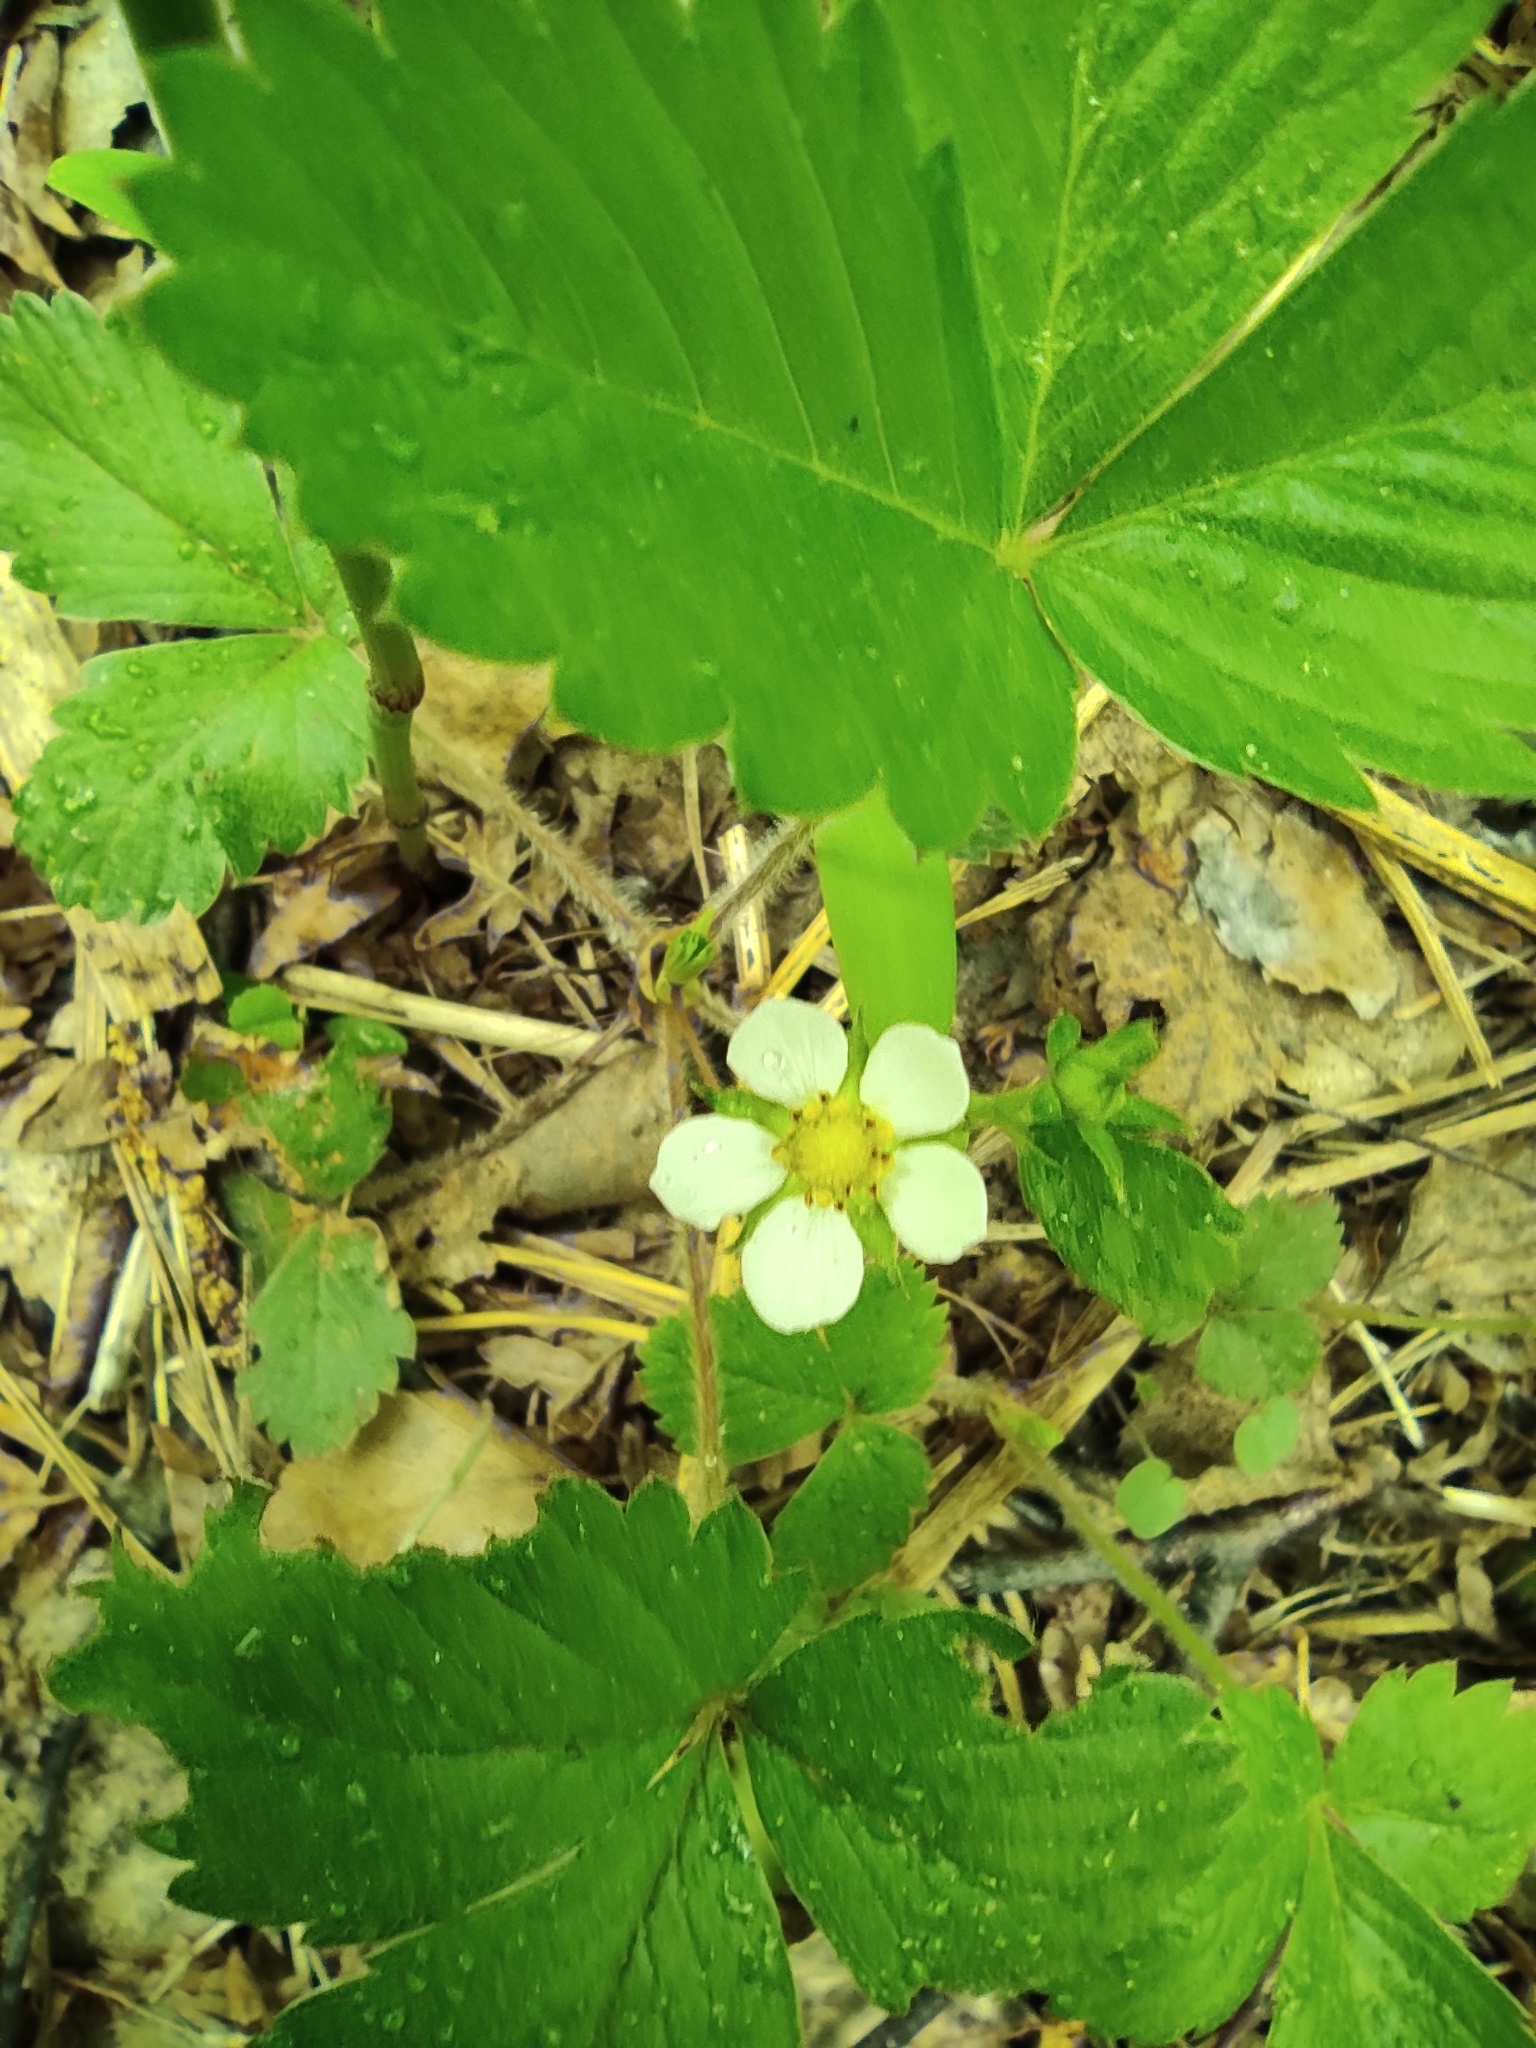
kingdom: Plantae
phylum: Tracheophyta
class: Magnoliopsida
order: Rosales
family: Rosaceae
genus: Fragaria
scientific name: Fragaria vesca
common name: Wild strawberry
